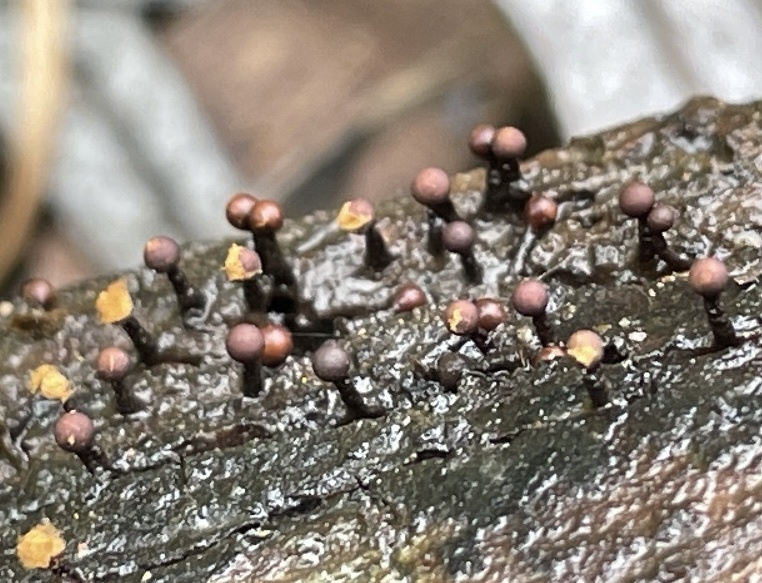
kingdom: Protozoa
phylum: Mycetozoa
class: Myxomycetes
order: Trichiales
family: Trichiaceae
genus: Trichia
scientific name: Trichia botrytis
